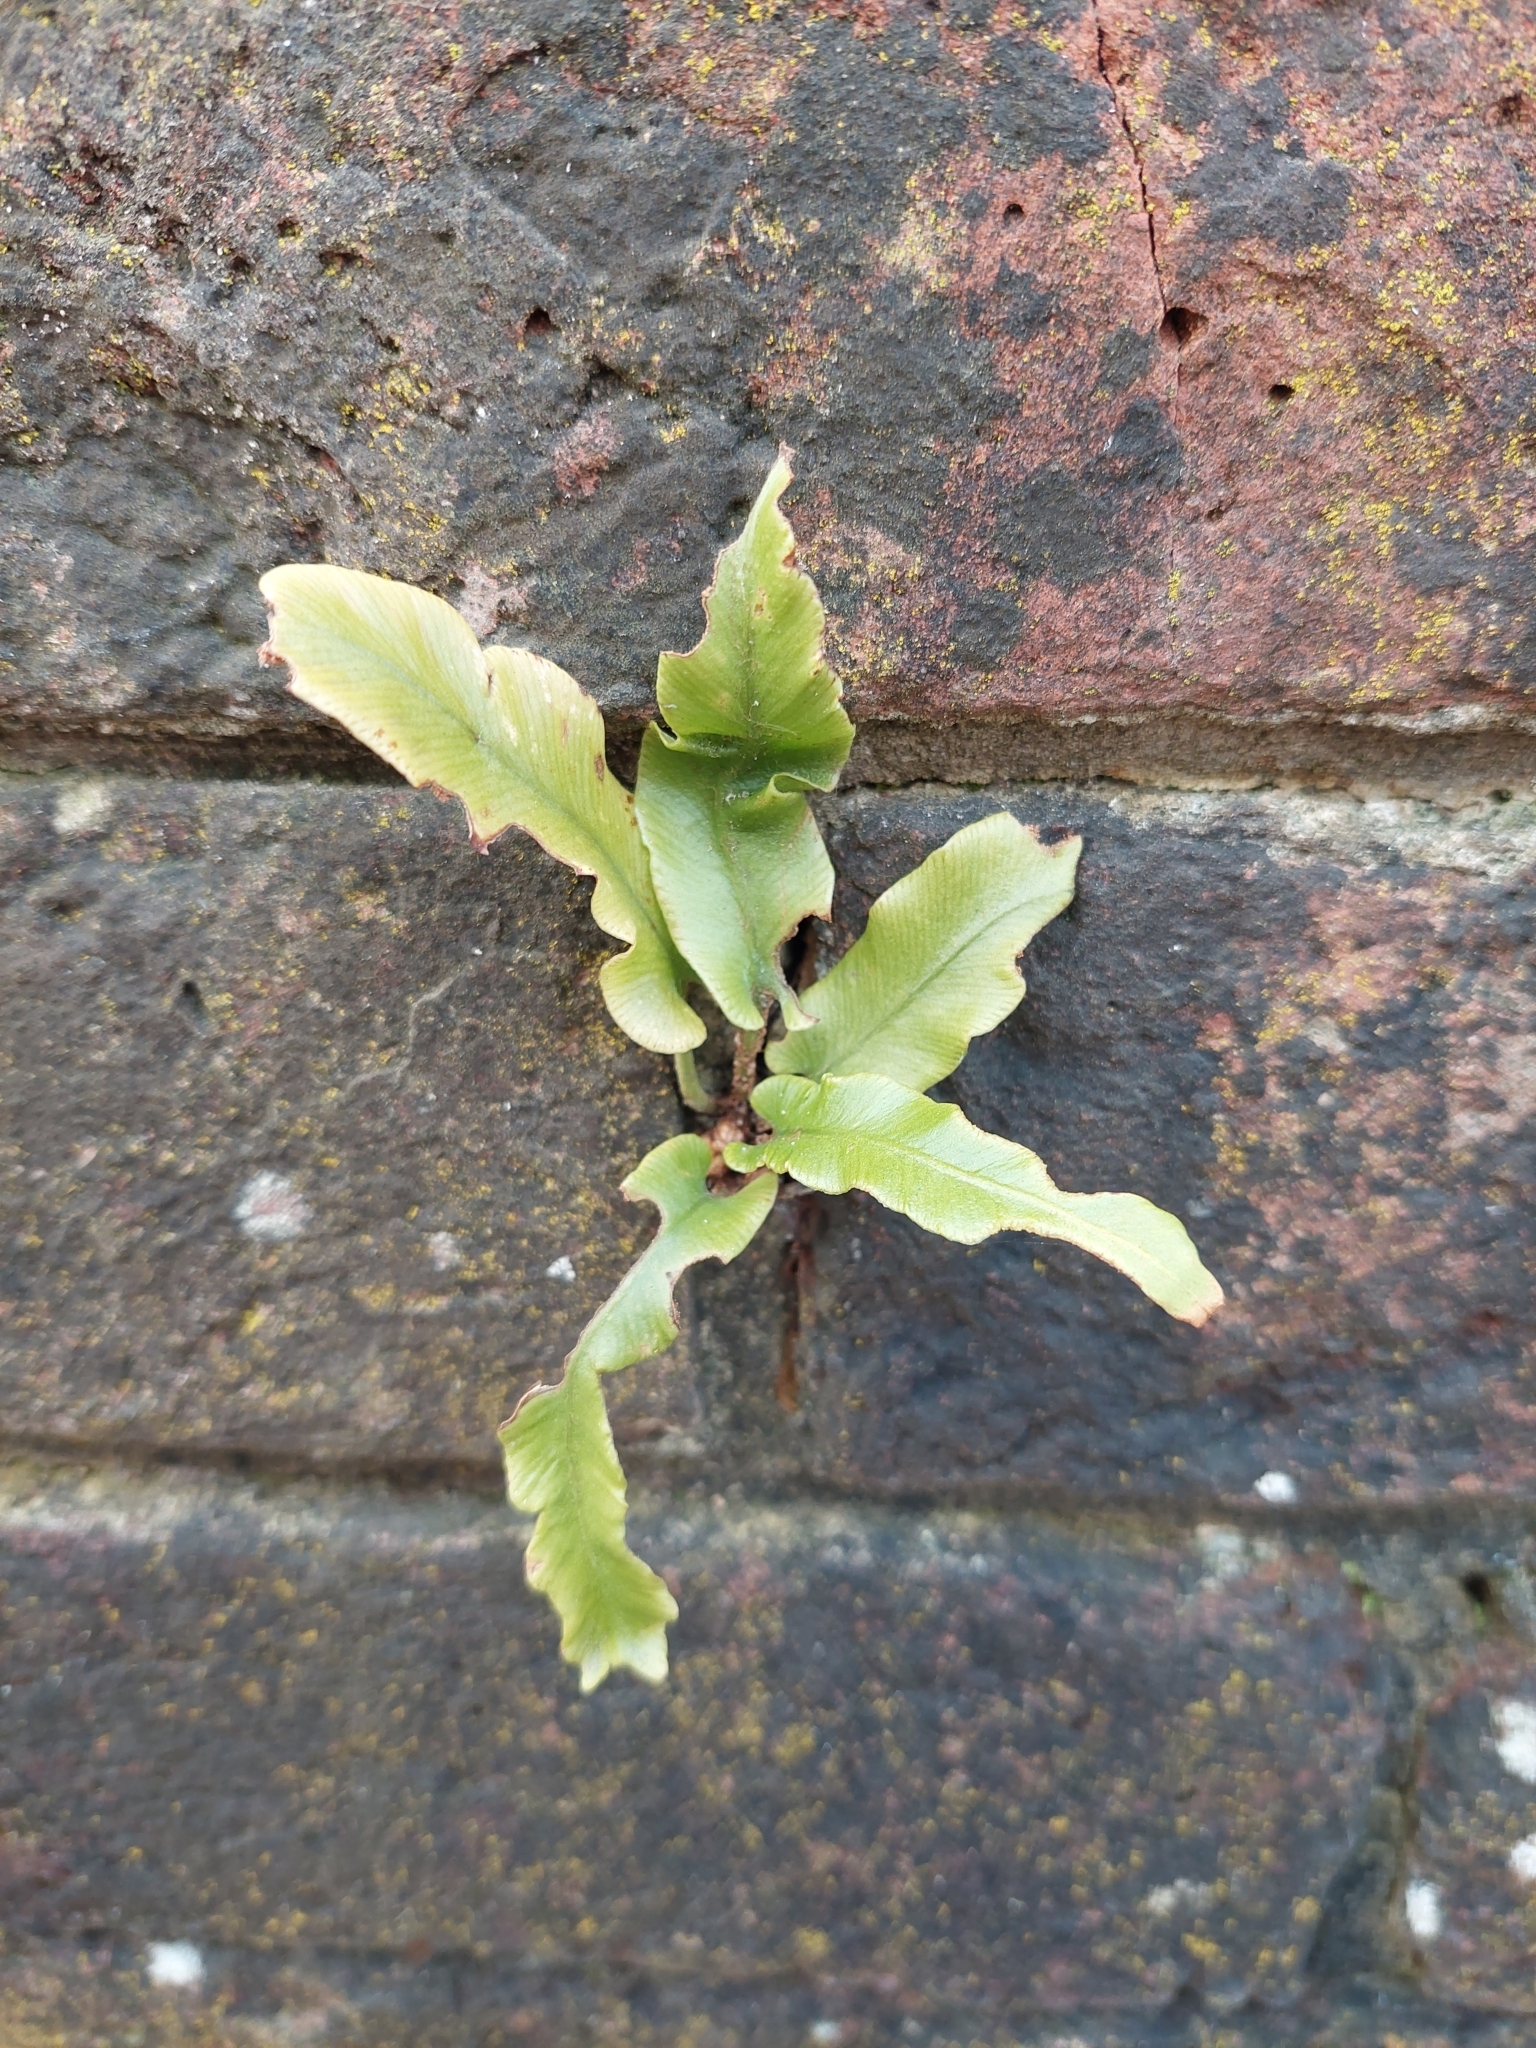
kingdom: Plantae
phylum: Tracheophyta
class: Polypodiopsida
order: Polypodiales
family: Aspleniaceae
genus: Asplenium
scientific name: Asplenium scolopendrium
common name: Hart's-tongue fern
